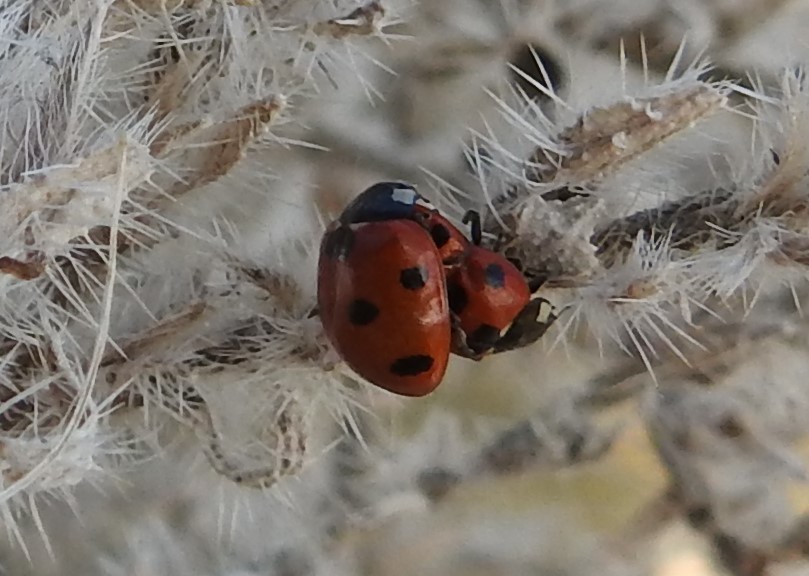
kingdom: Animalia
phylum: Arthropoda
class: Insecta
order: Coleoptera
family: Coccinellidae
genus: Coccinella
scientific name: Coccinella algerica
